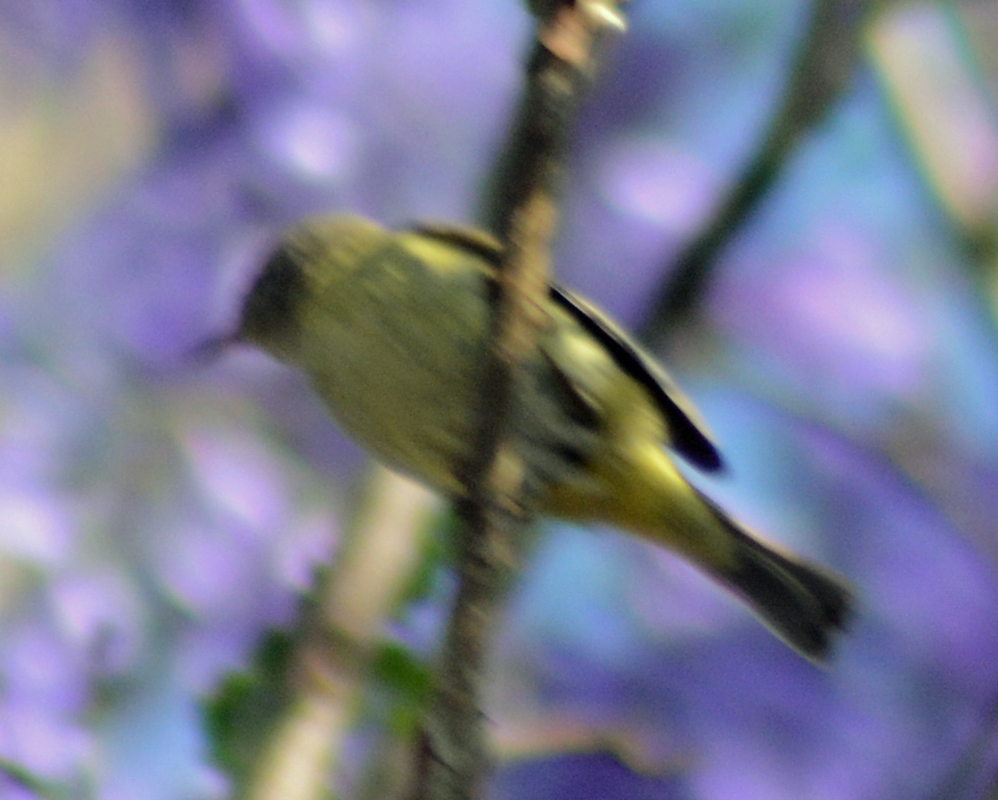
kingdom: Animalia
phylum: Chordata
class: Aves
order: Passeriformes
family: Fringillidae
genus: Spinus
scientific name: Spinus psaltria
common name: Lesser goldfinch
